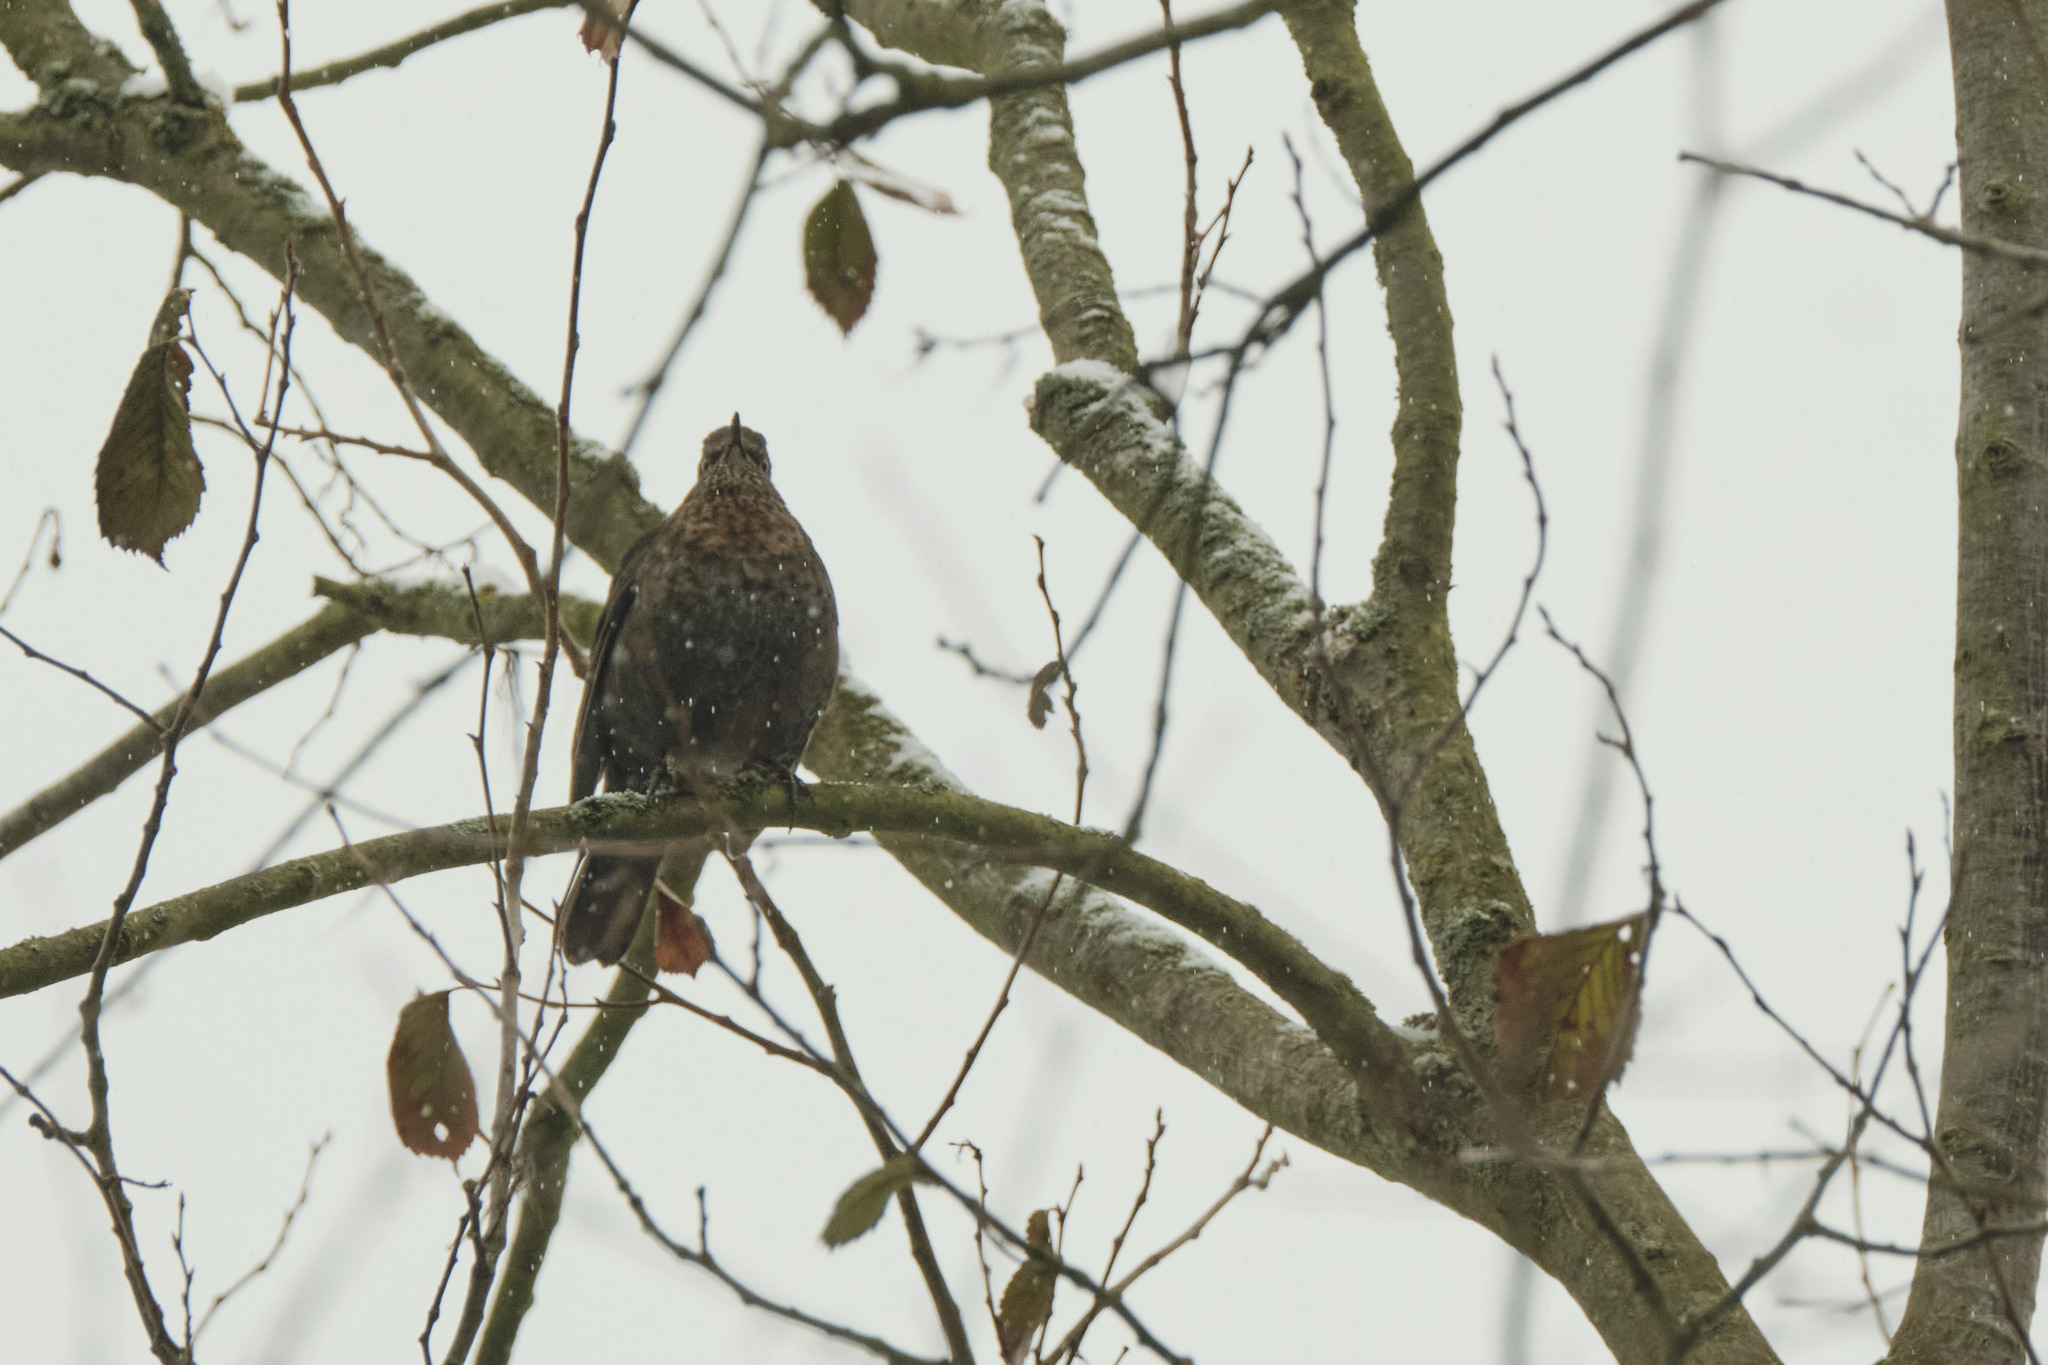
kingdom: Animalia
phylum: Chordata
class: Aves
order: Passeriformes
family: Turdidae
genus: Turdus
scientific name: Turdus merula
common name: Common blackbird
